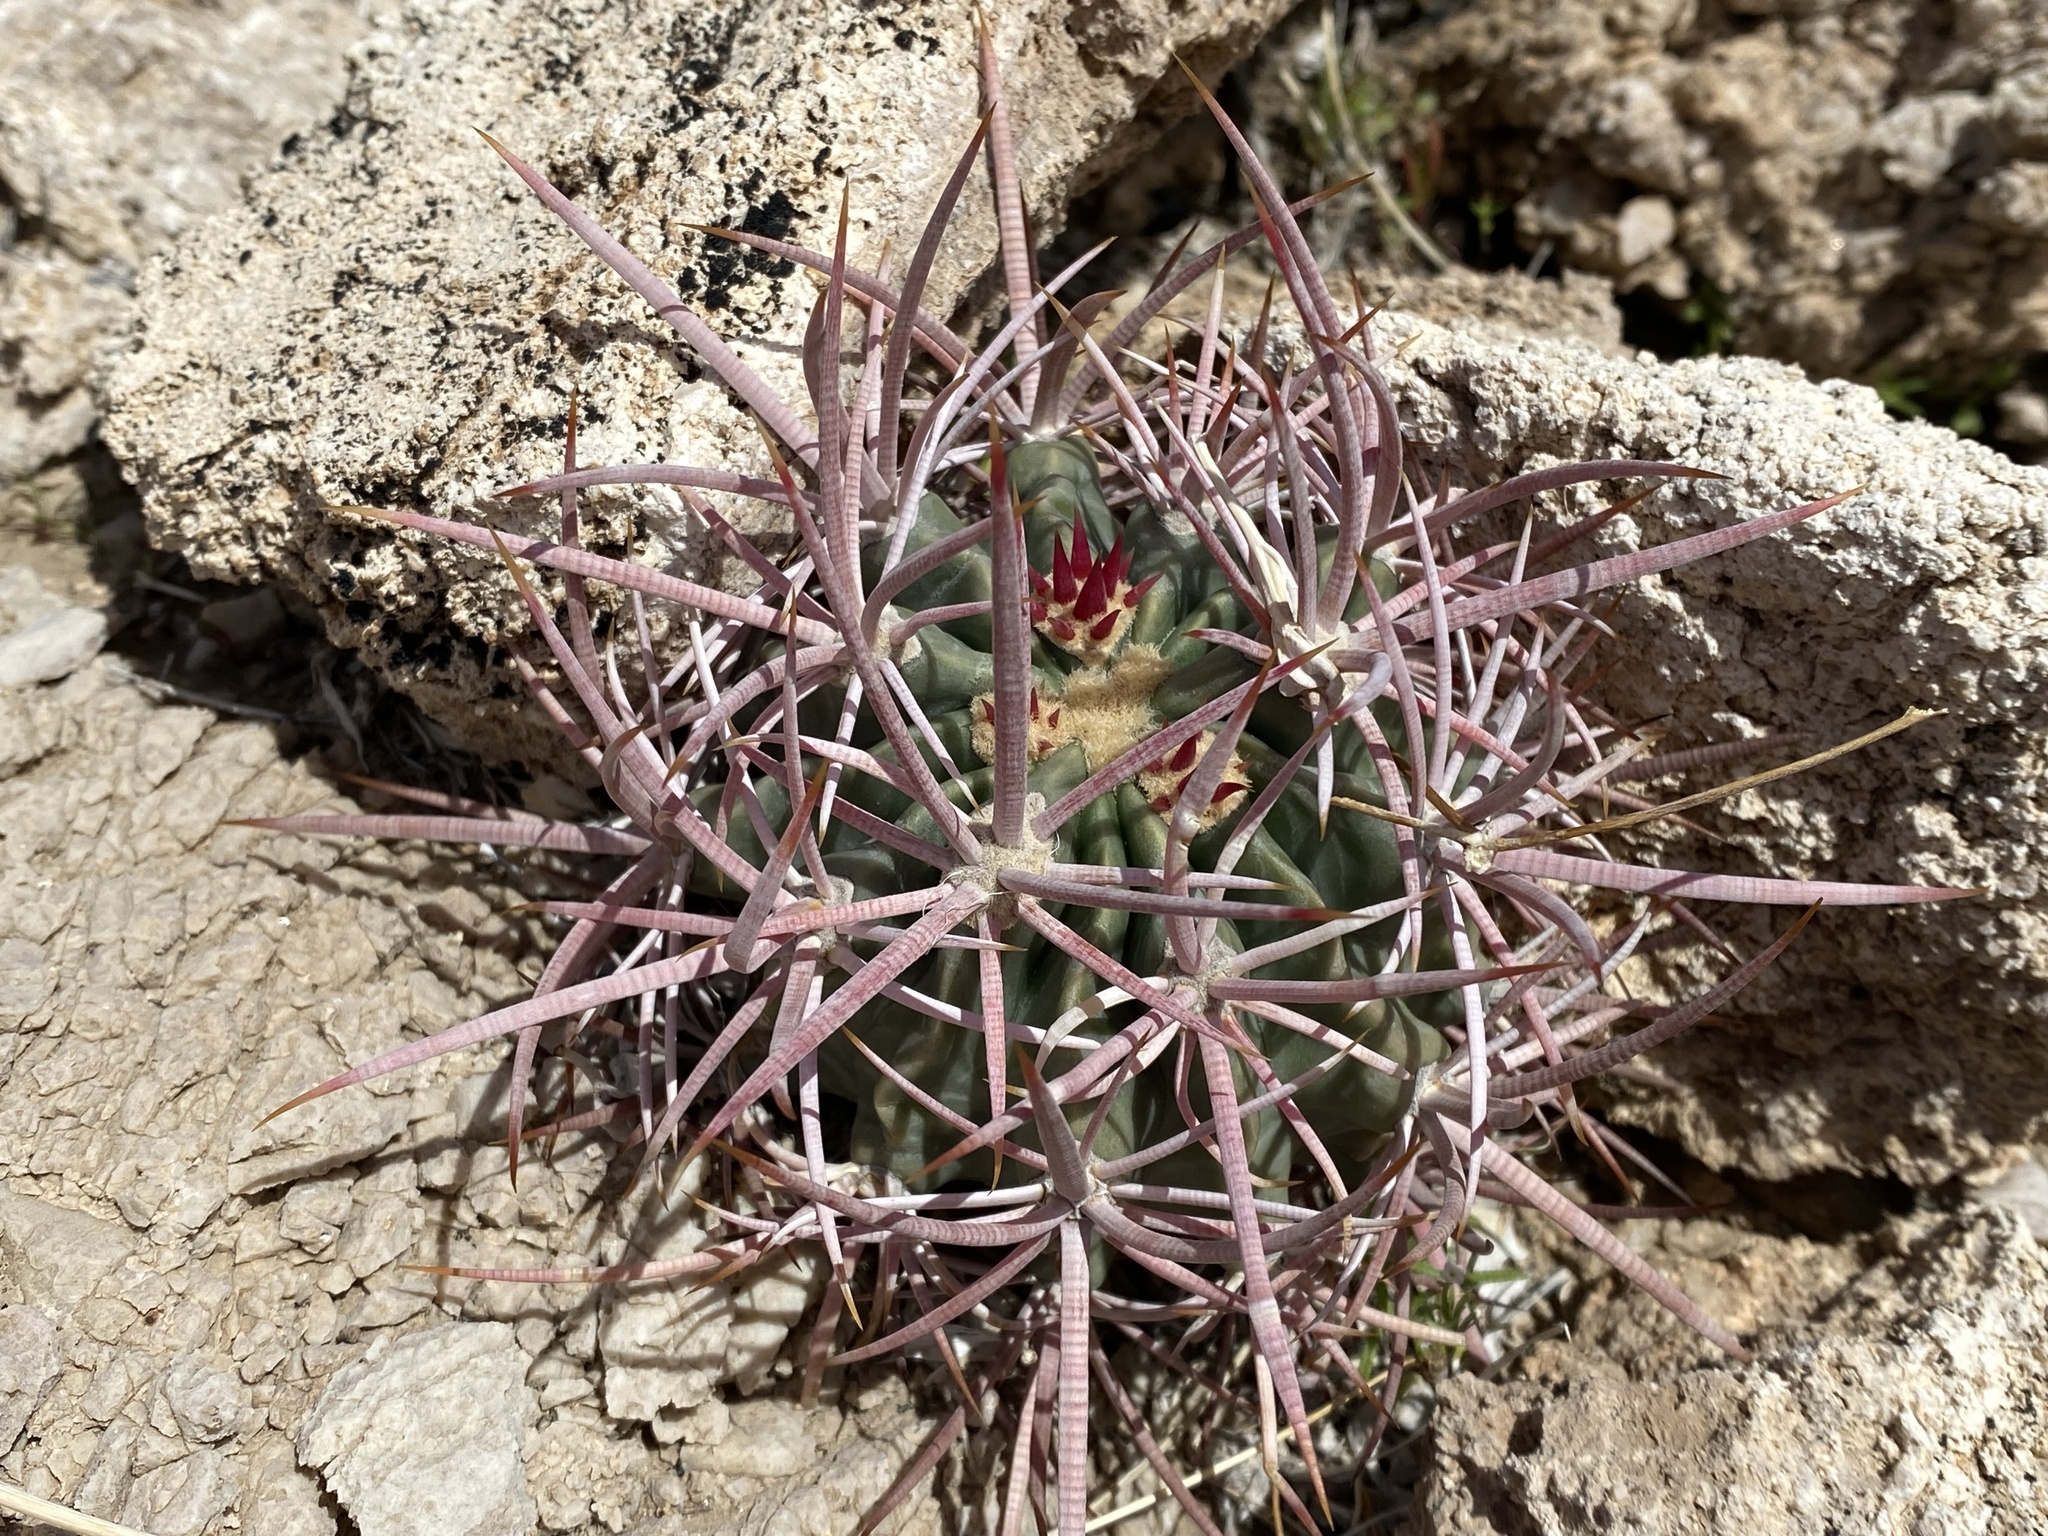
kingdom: Plantae
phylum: Tracheophyta
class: Magnoliopsida
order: Caryophyllales
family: Cactaceae
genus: Echinocactus
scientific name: Echinocactus polycephalus
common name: Cottontop cactus
